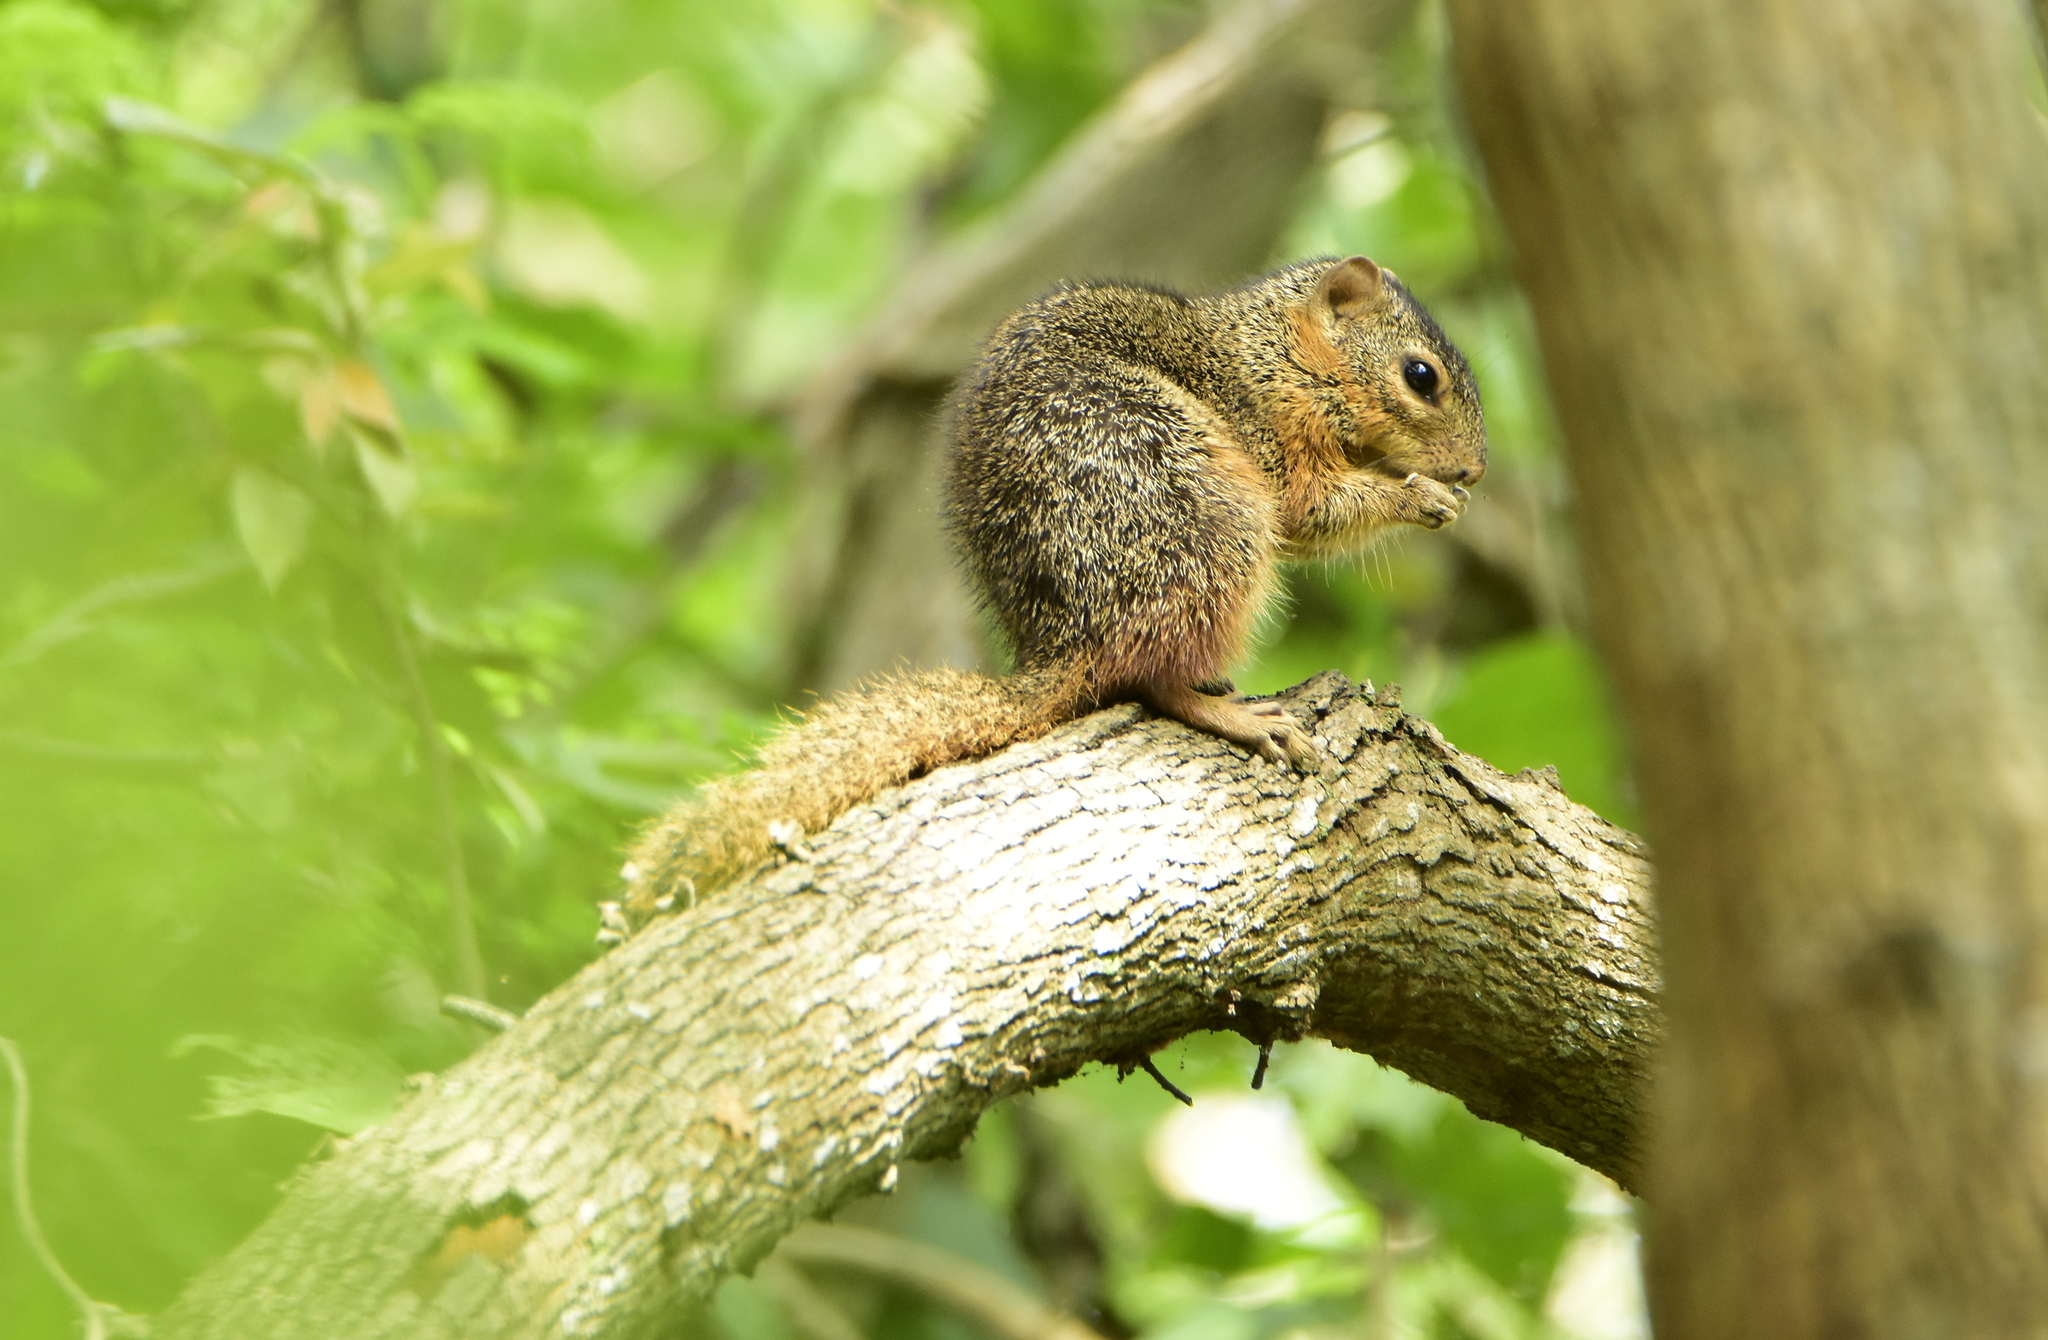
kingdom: Animalia
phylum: Chordata
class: Mammalia
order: Rodentia
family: Sciuridae
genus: Notocitellus
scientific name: Notocitellus annulatus
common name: Ring-tailed ground squirrel
